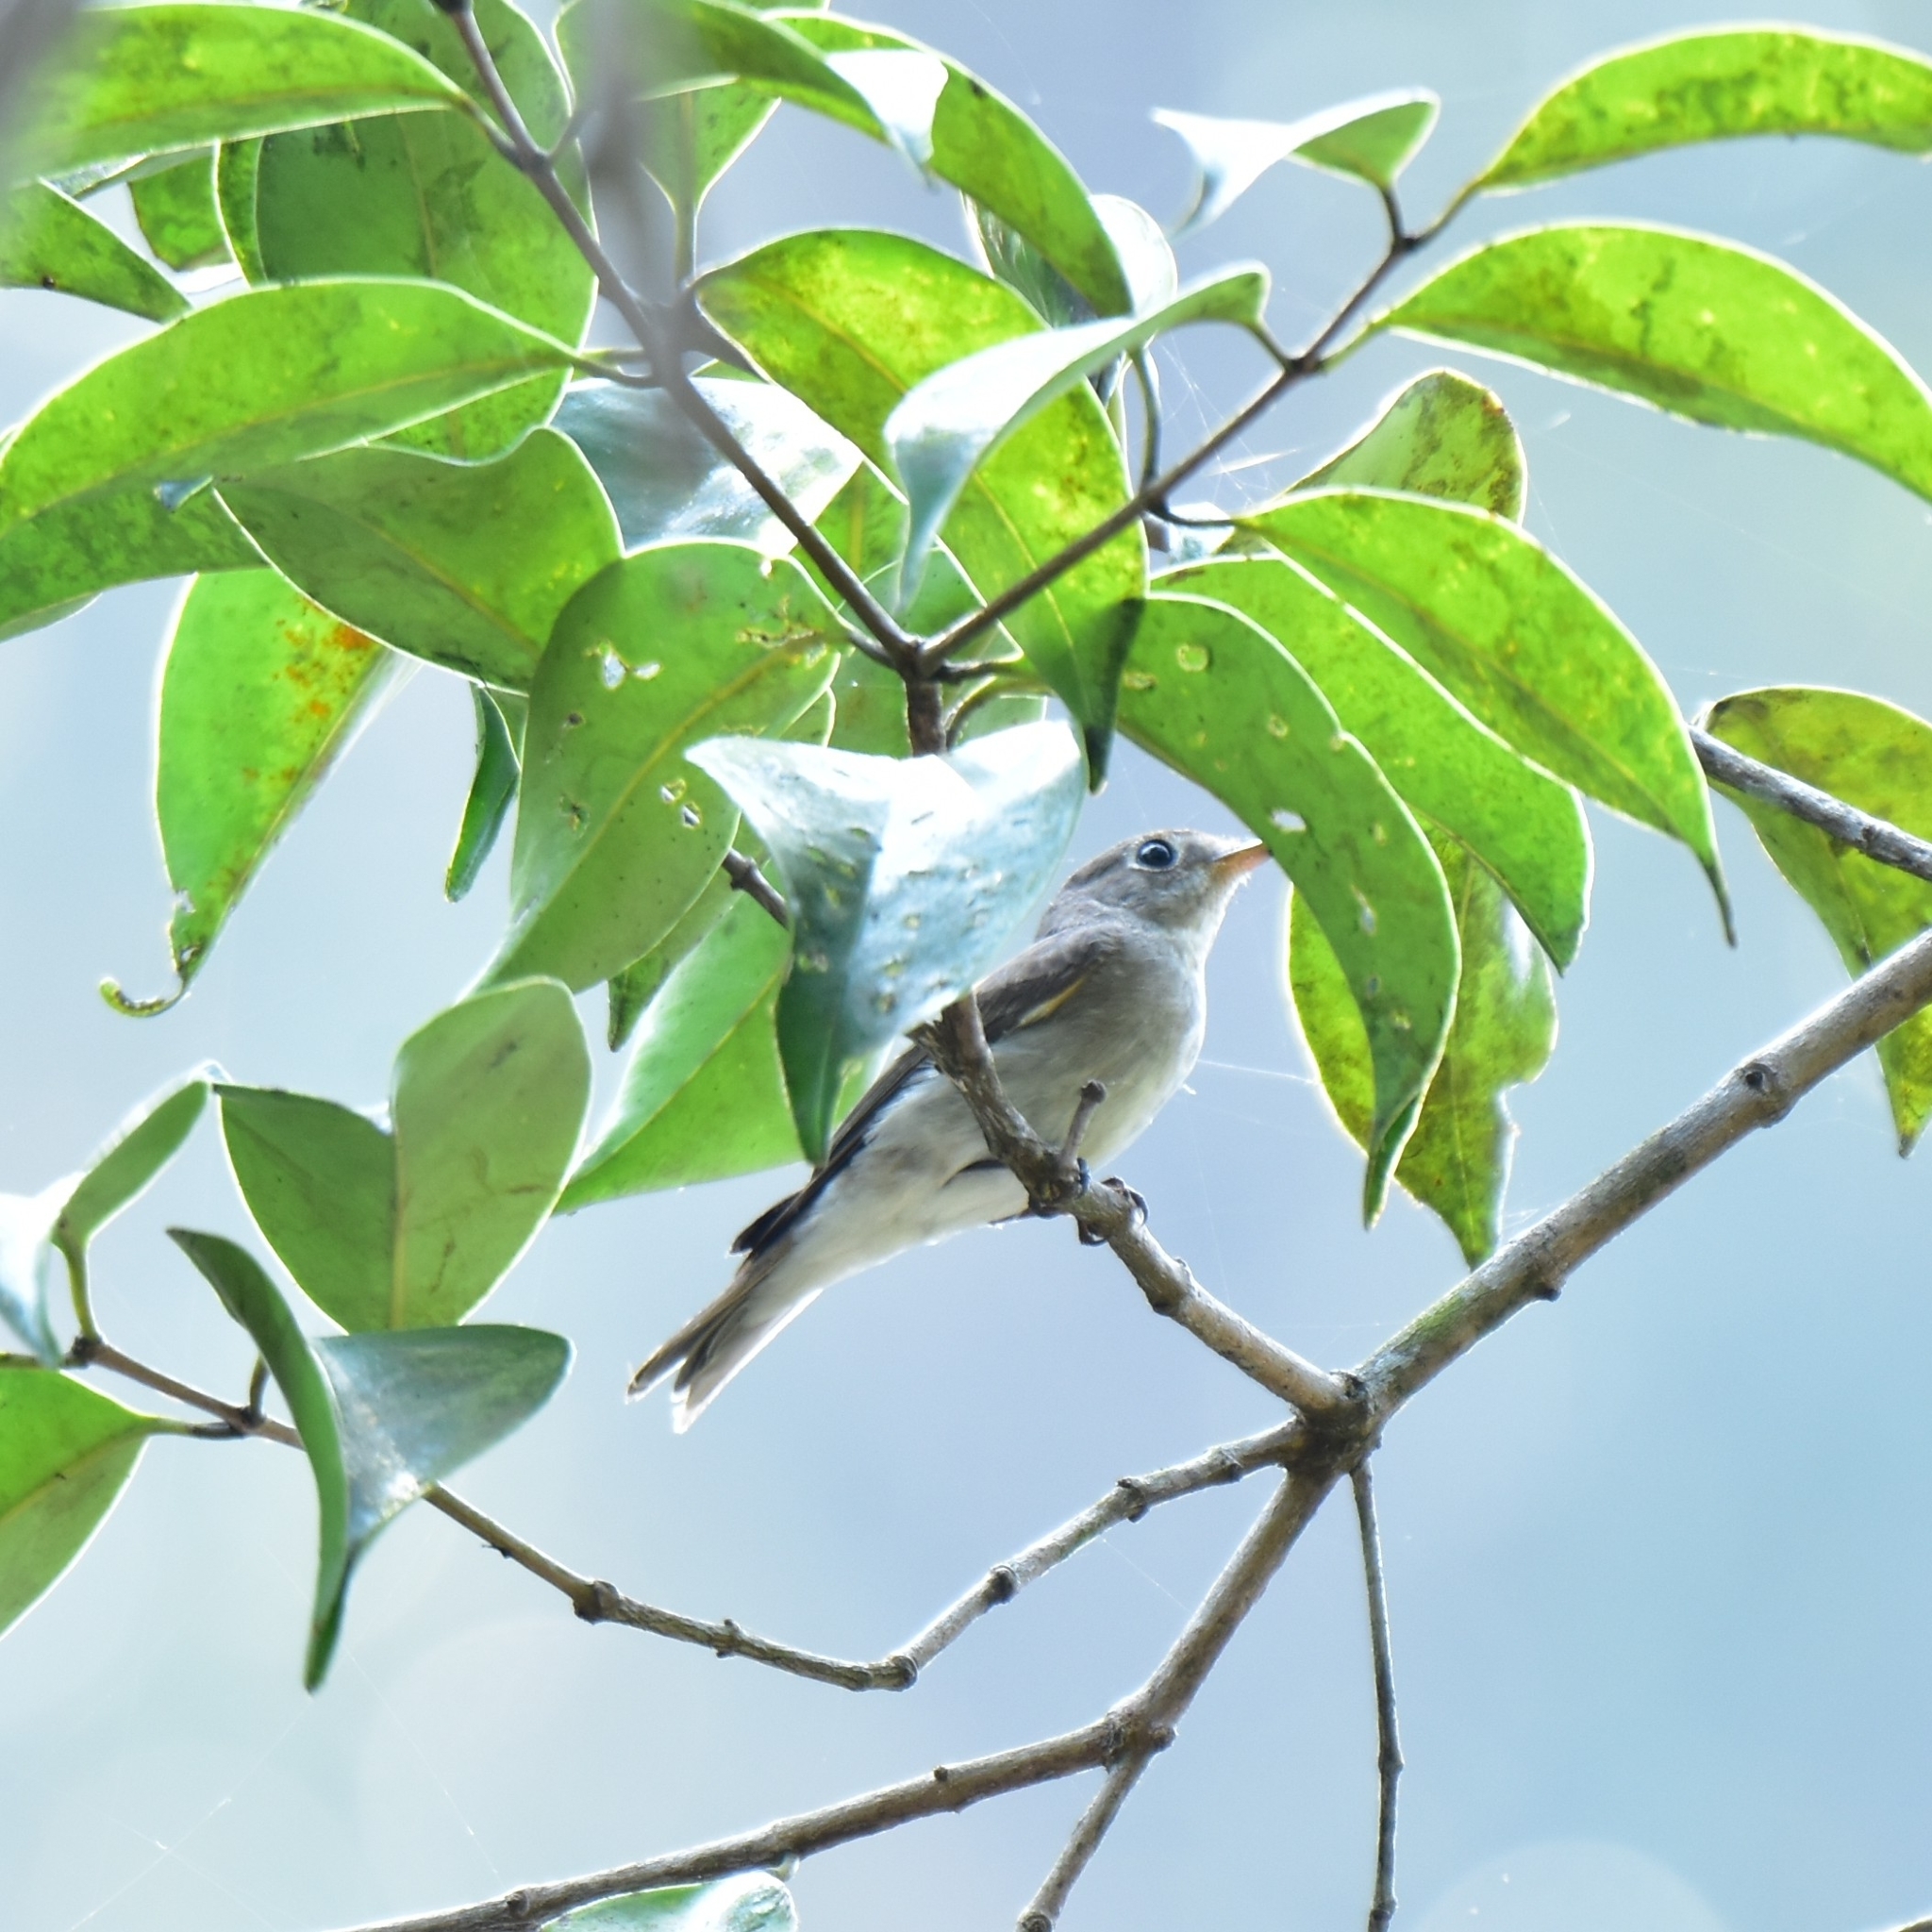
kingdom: Animalia
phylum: Chordata
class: Aves
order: Passeriformes
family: Muscicapidae
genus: Muscicapa
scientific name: Muscicapa latirostris
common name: Asian brown flycatcher
